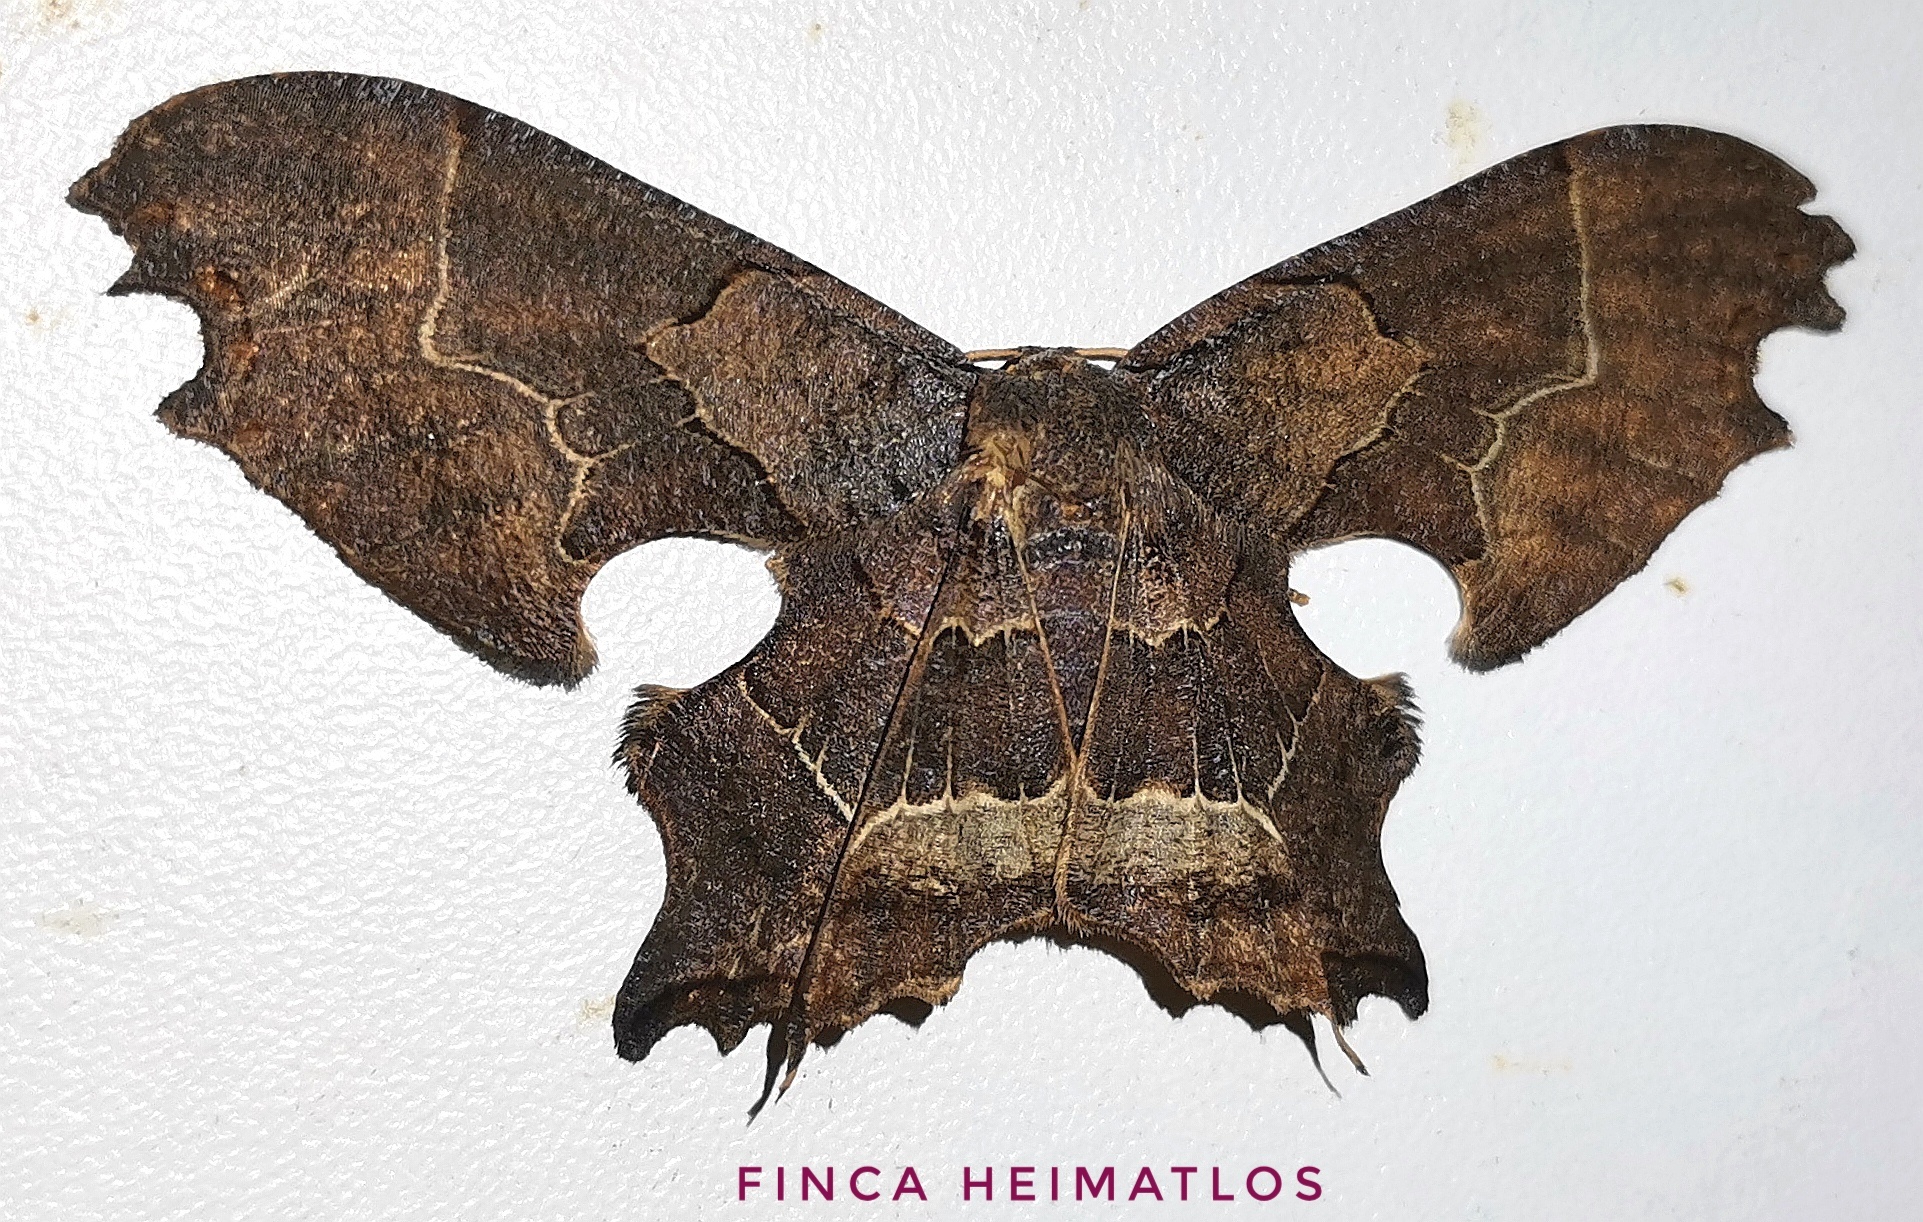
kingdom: Animalia
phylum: Arthropoda
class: Insecta
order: Lepidoptera
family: Uraniidae
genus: Epiplema
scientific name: Epiplema incendiata
